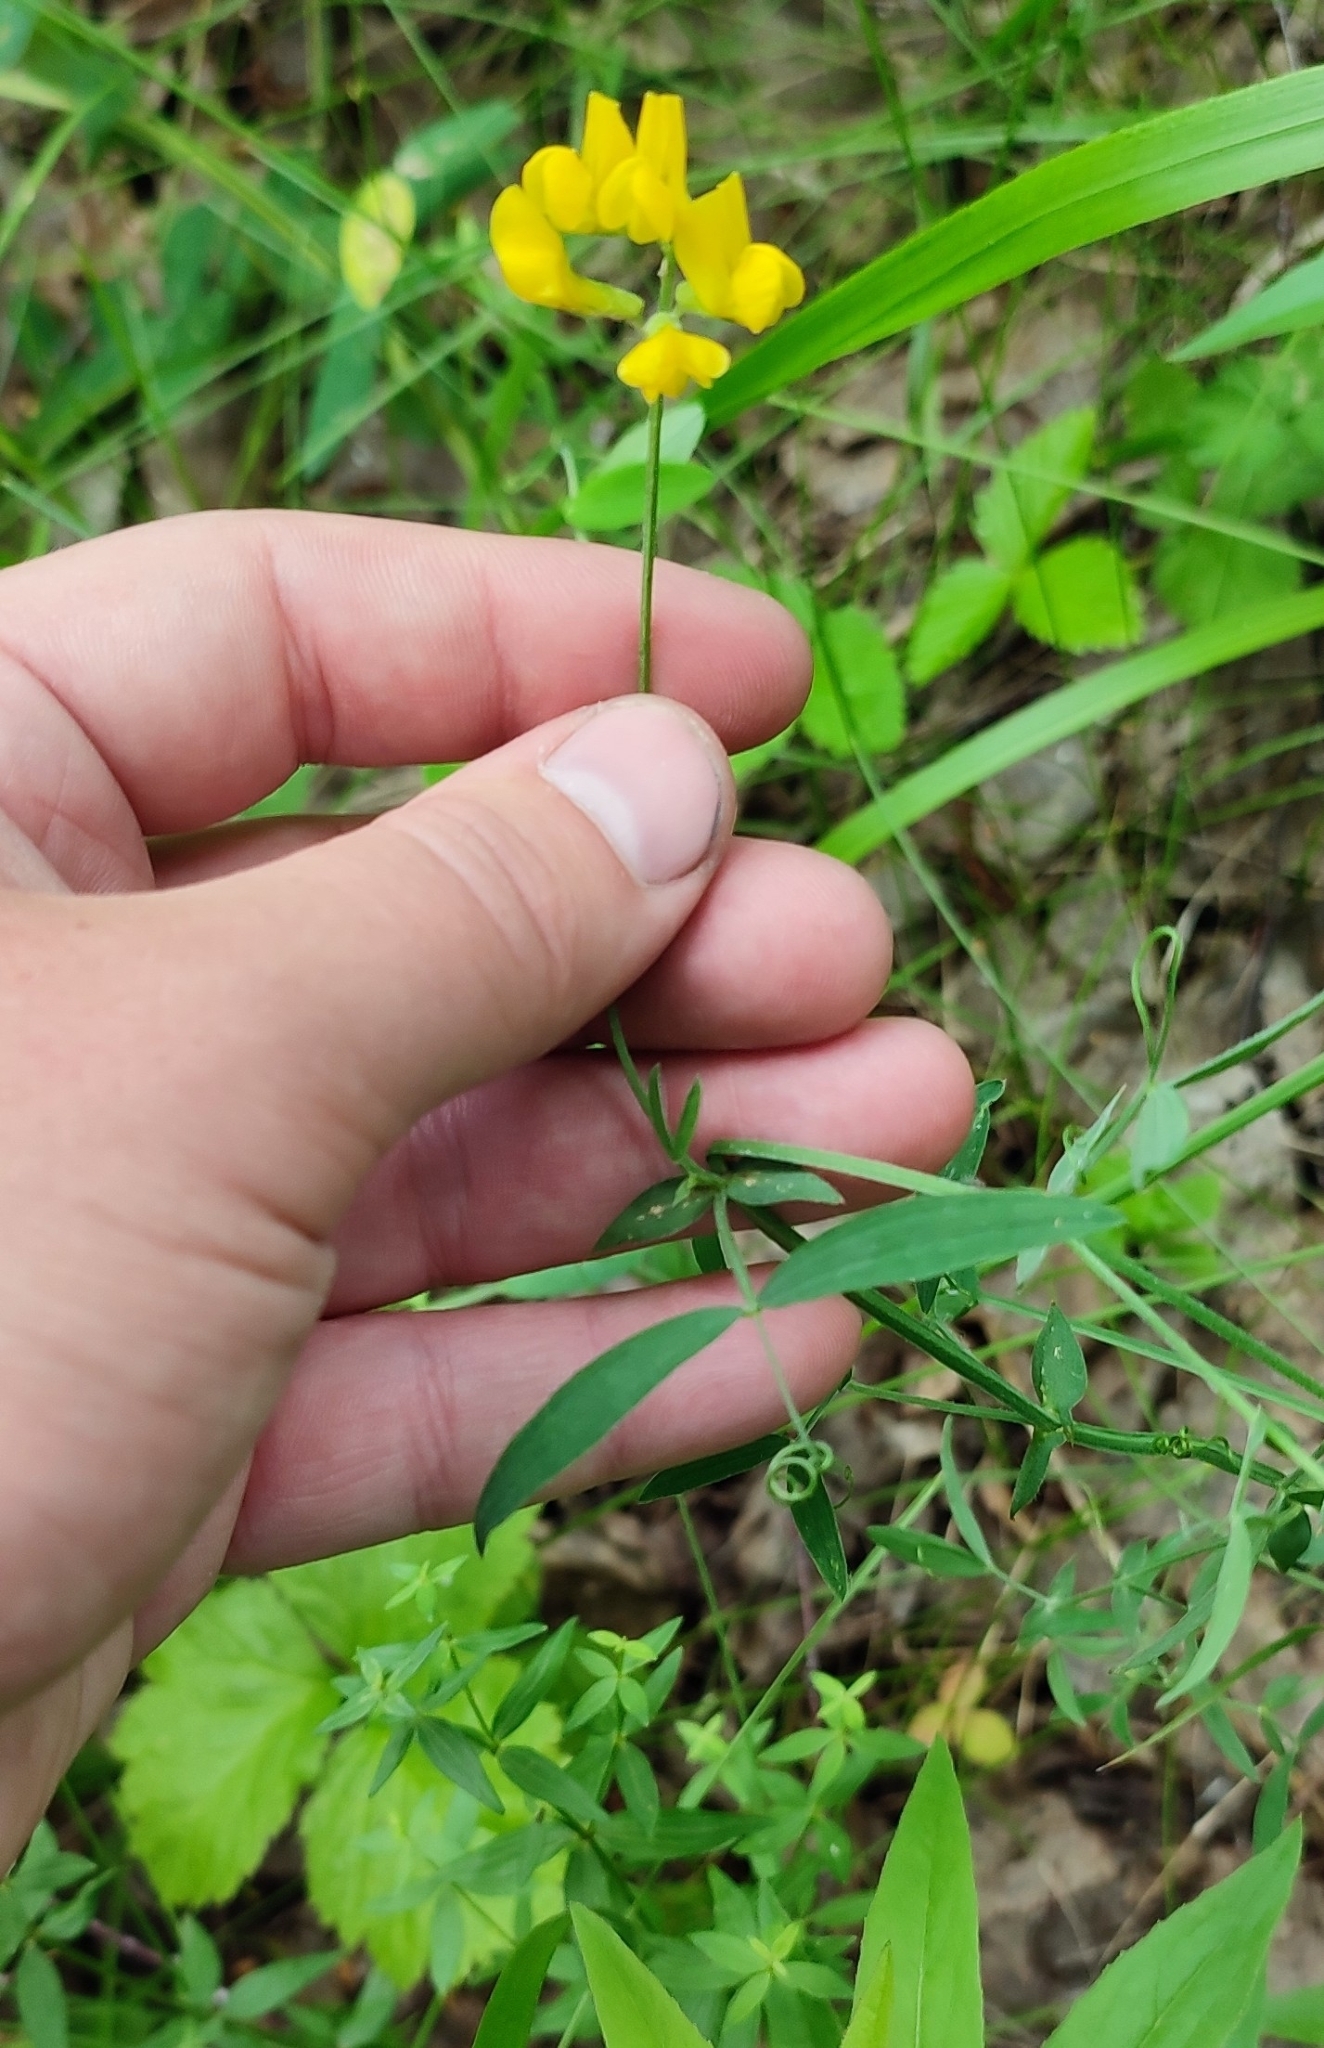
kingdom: Plantae
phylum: Tracheophyta
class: Magnoliopsida
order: Fabales
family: Fabaceae
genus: Lathyrus
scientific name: Lathyrus pratensis
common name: Meadow vetchling
